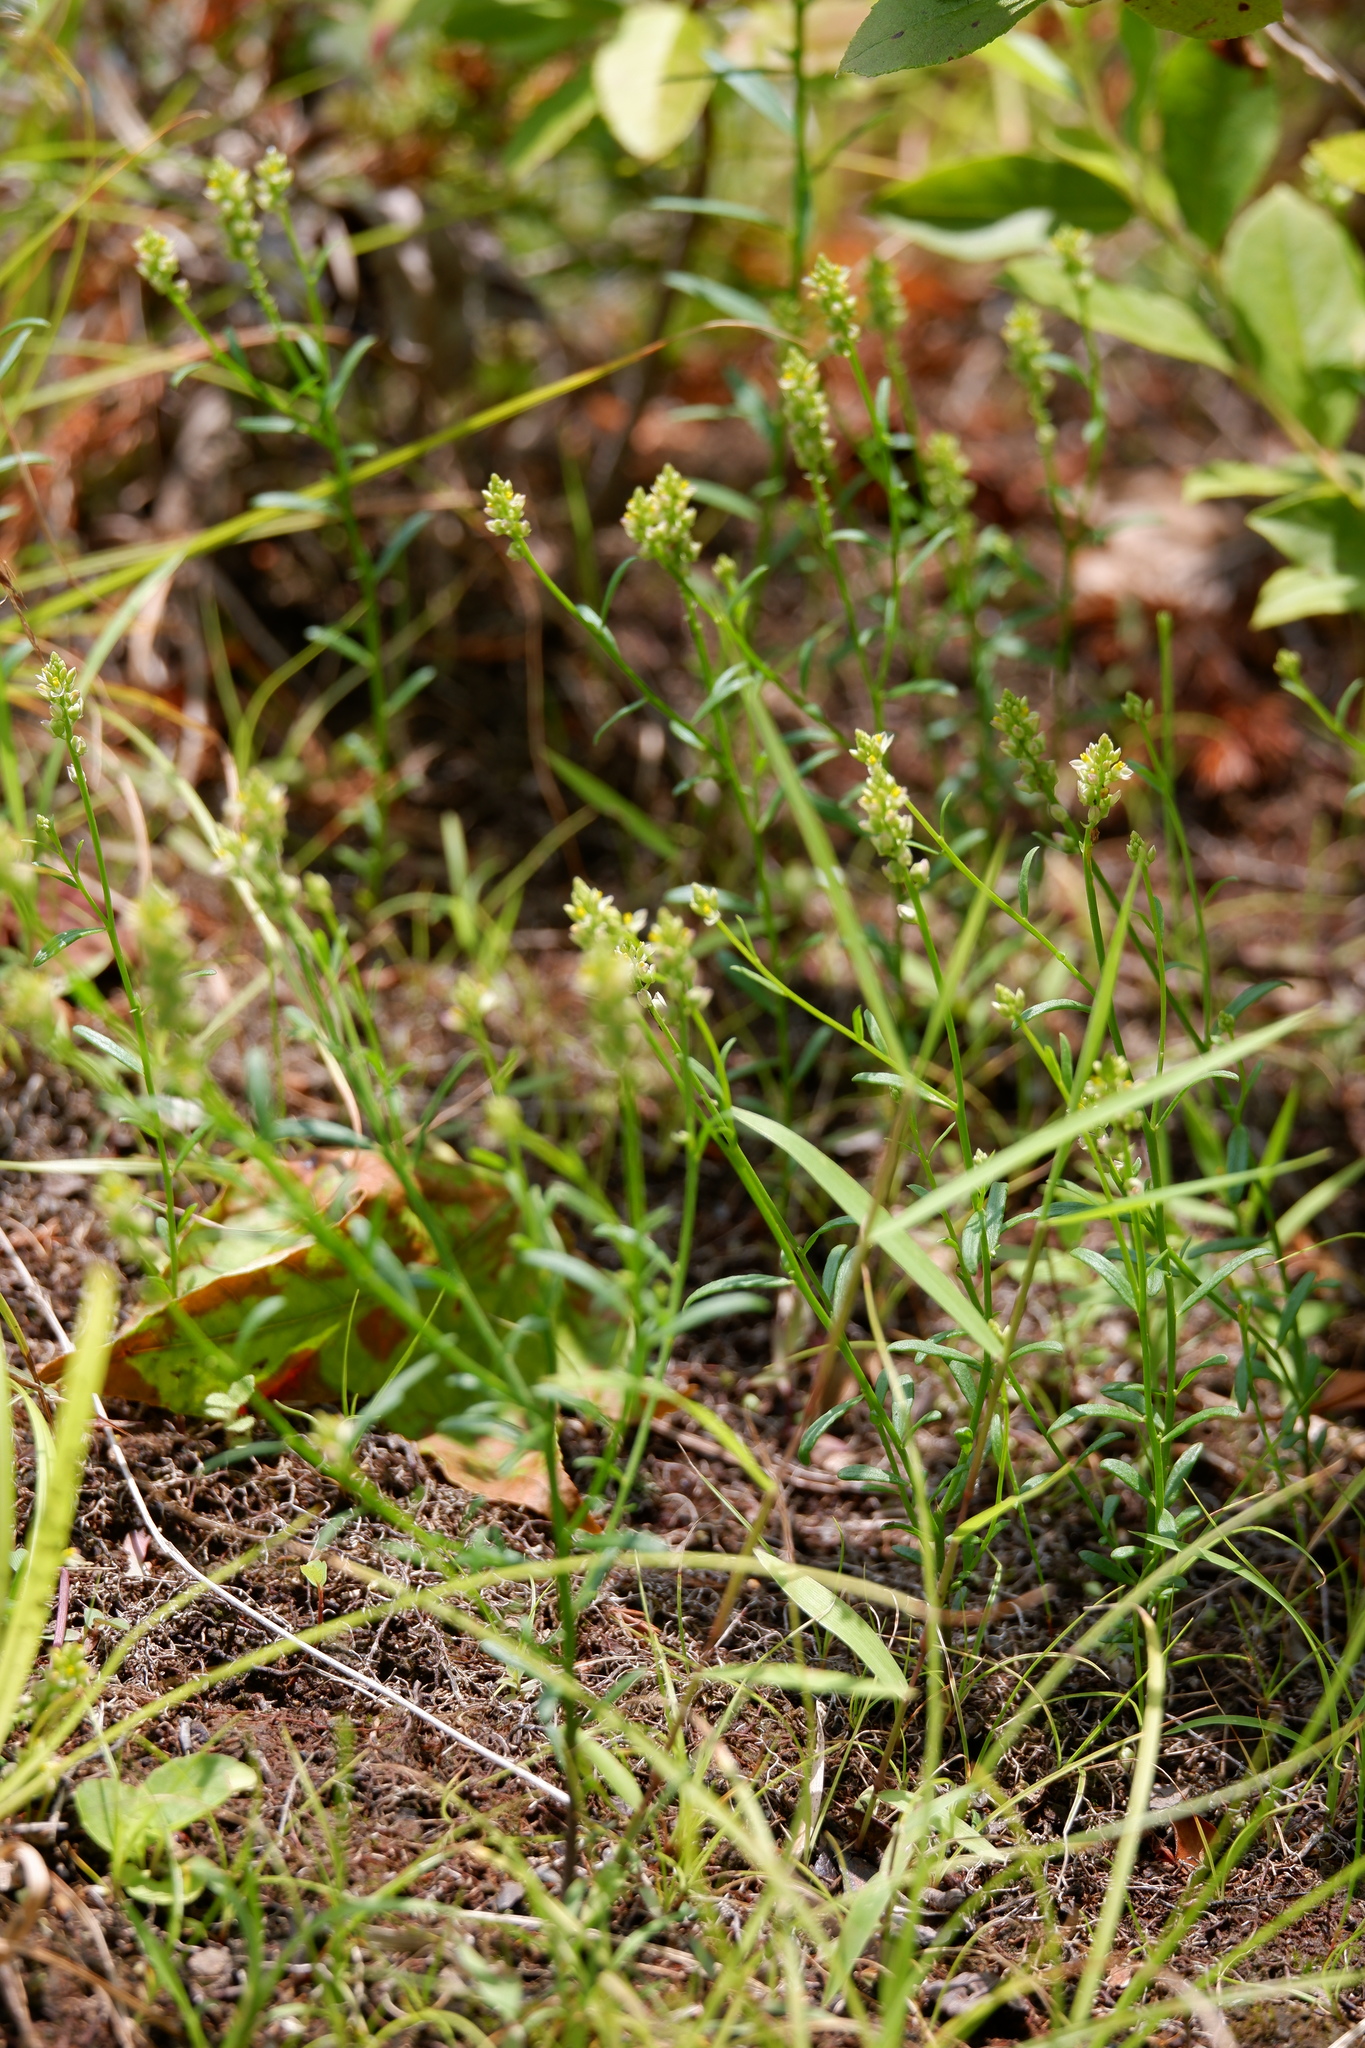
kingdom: Plantae
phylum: Tracheophyta
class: Magnoliopsida
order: Fabales
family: Polygalaceae
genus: Polygala
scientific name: Polygala nuttallii
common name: Nuttall's milkwort
